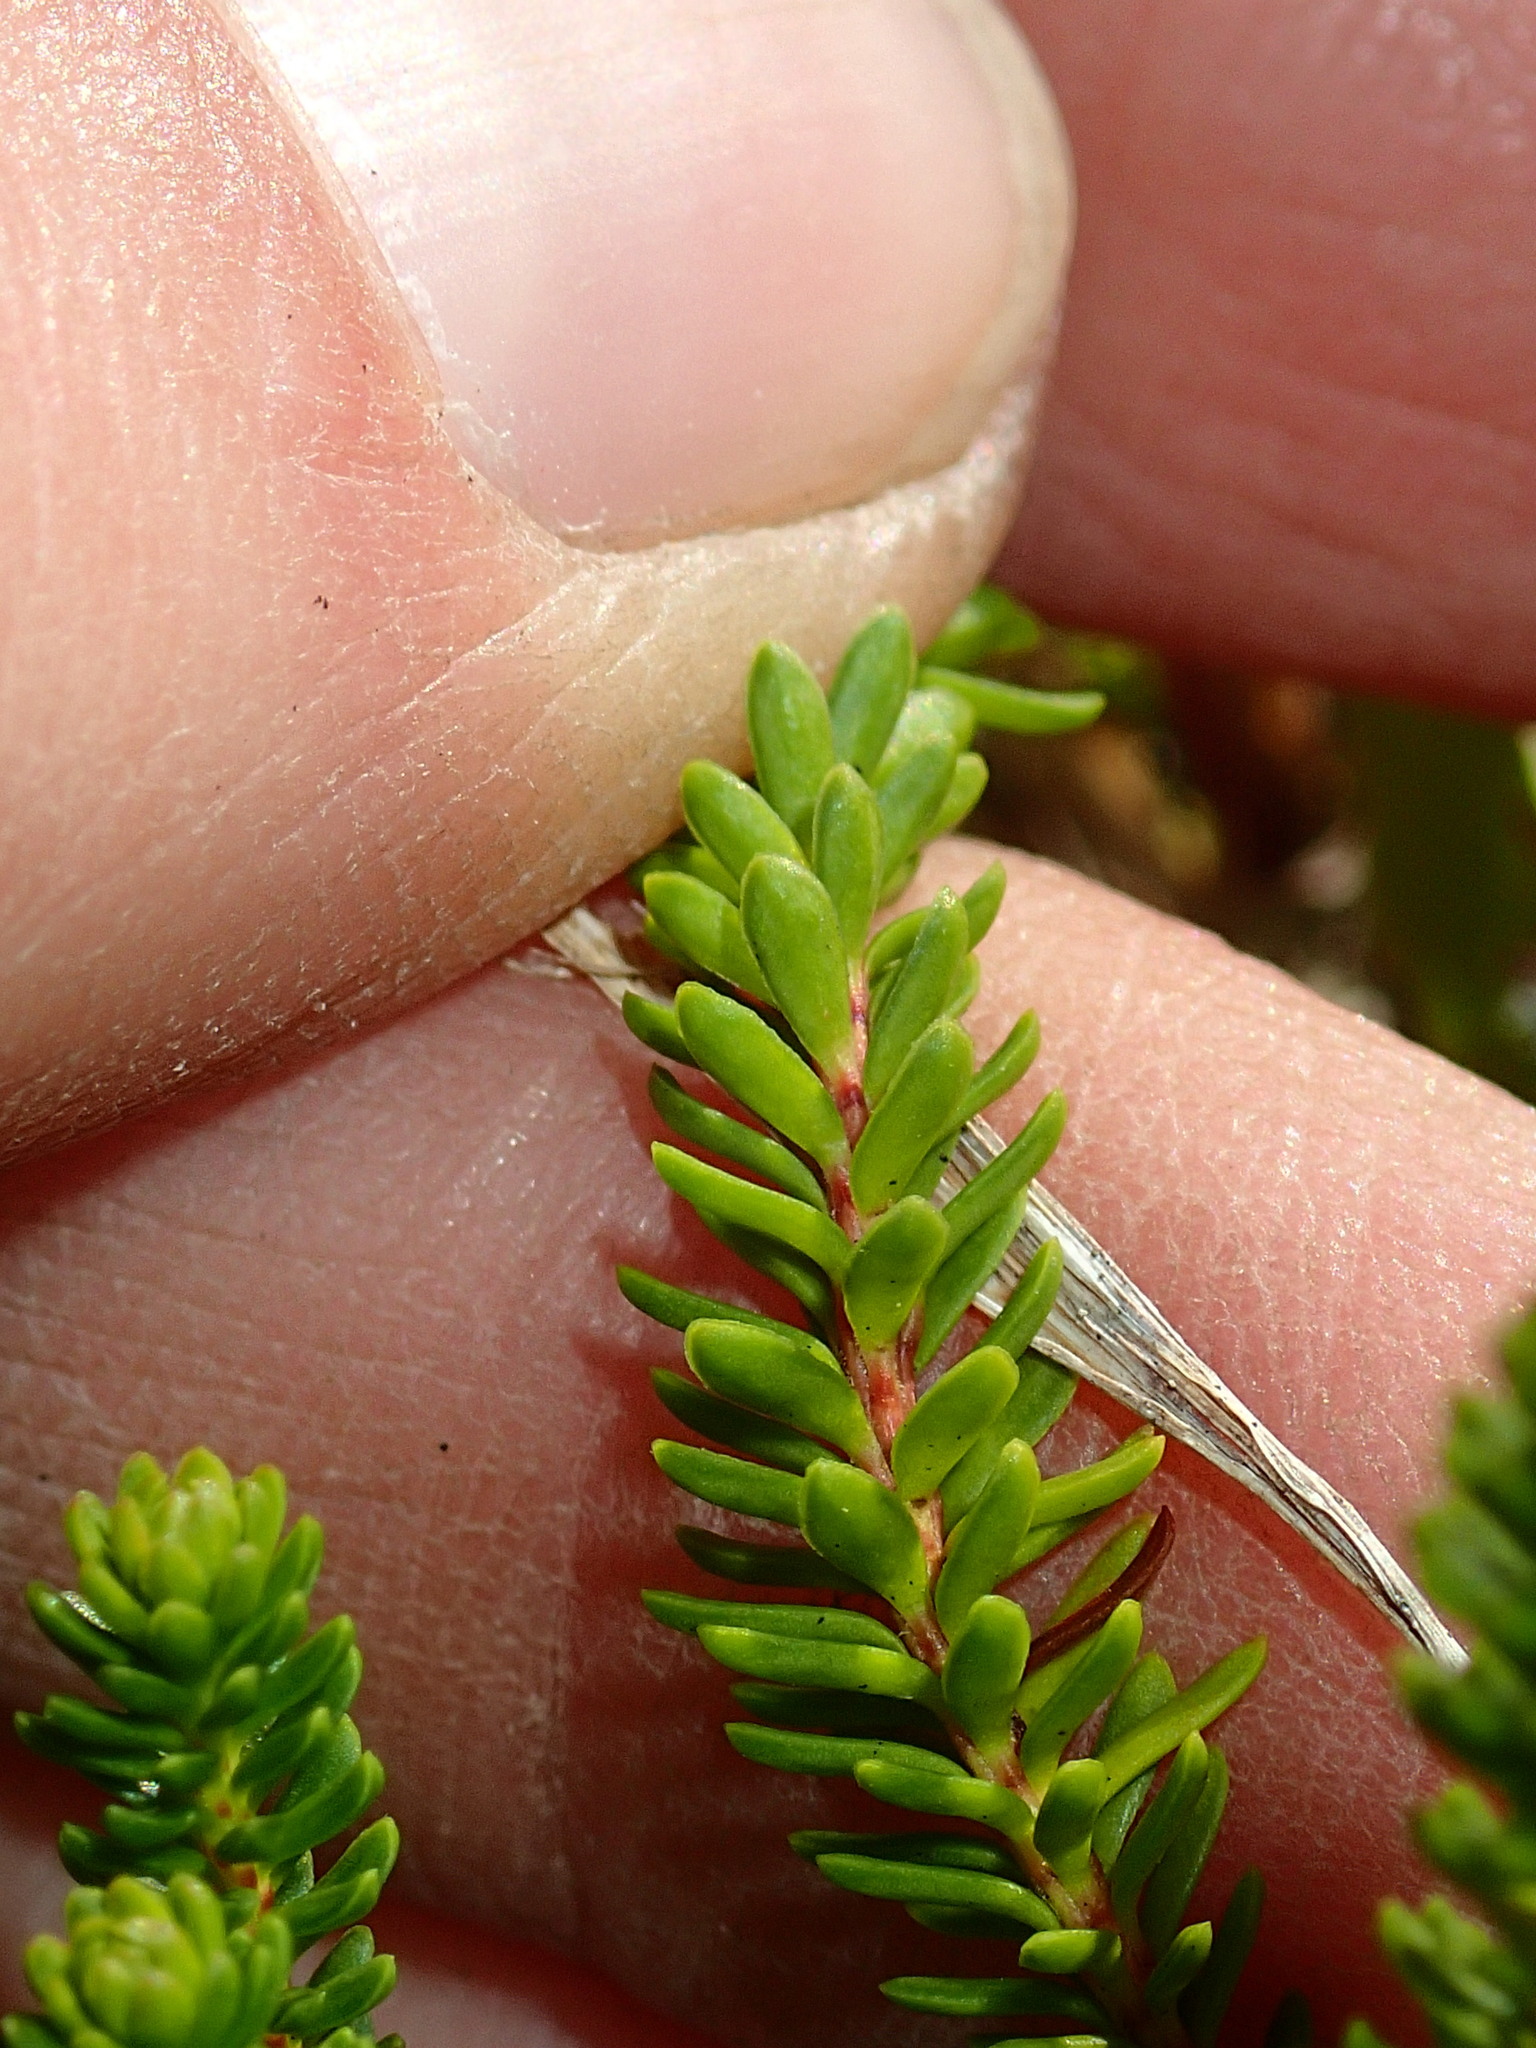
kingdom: Plantae
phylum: Tracheophyta
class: Magnoliopsida
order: Ericales
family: Ericaceae
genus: Harrimanella
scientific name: Harrimanella stelleriana
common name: Alaska bell heather
